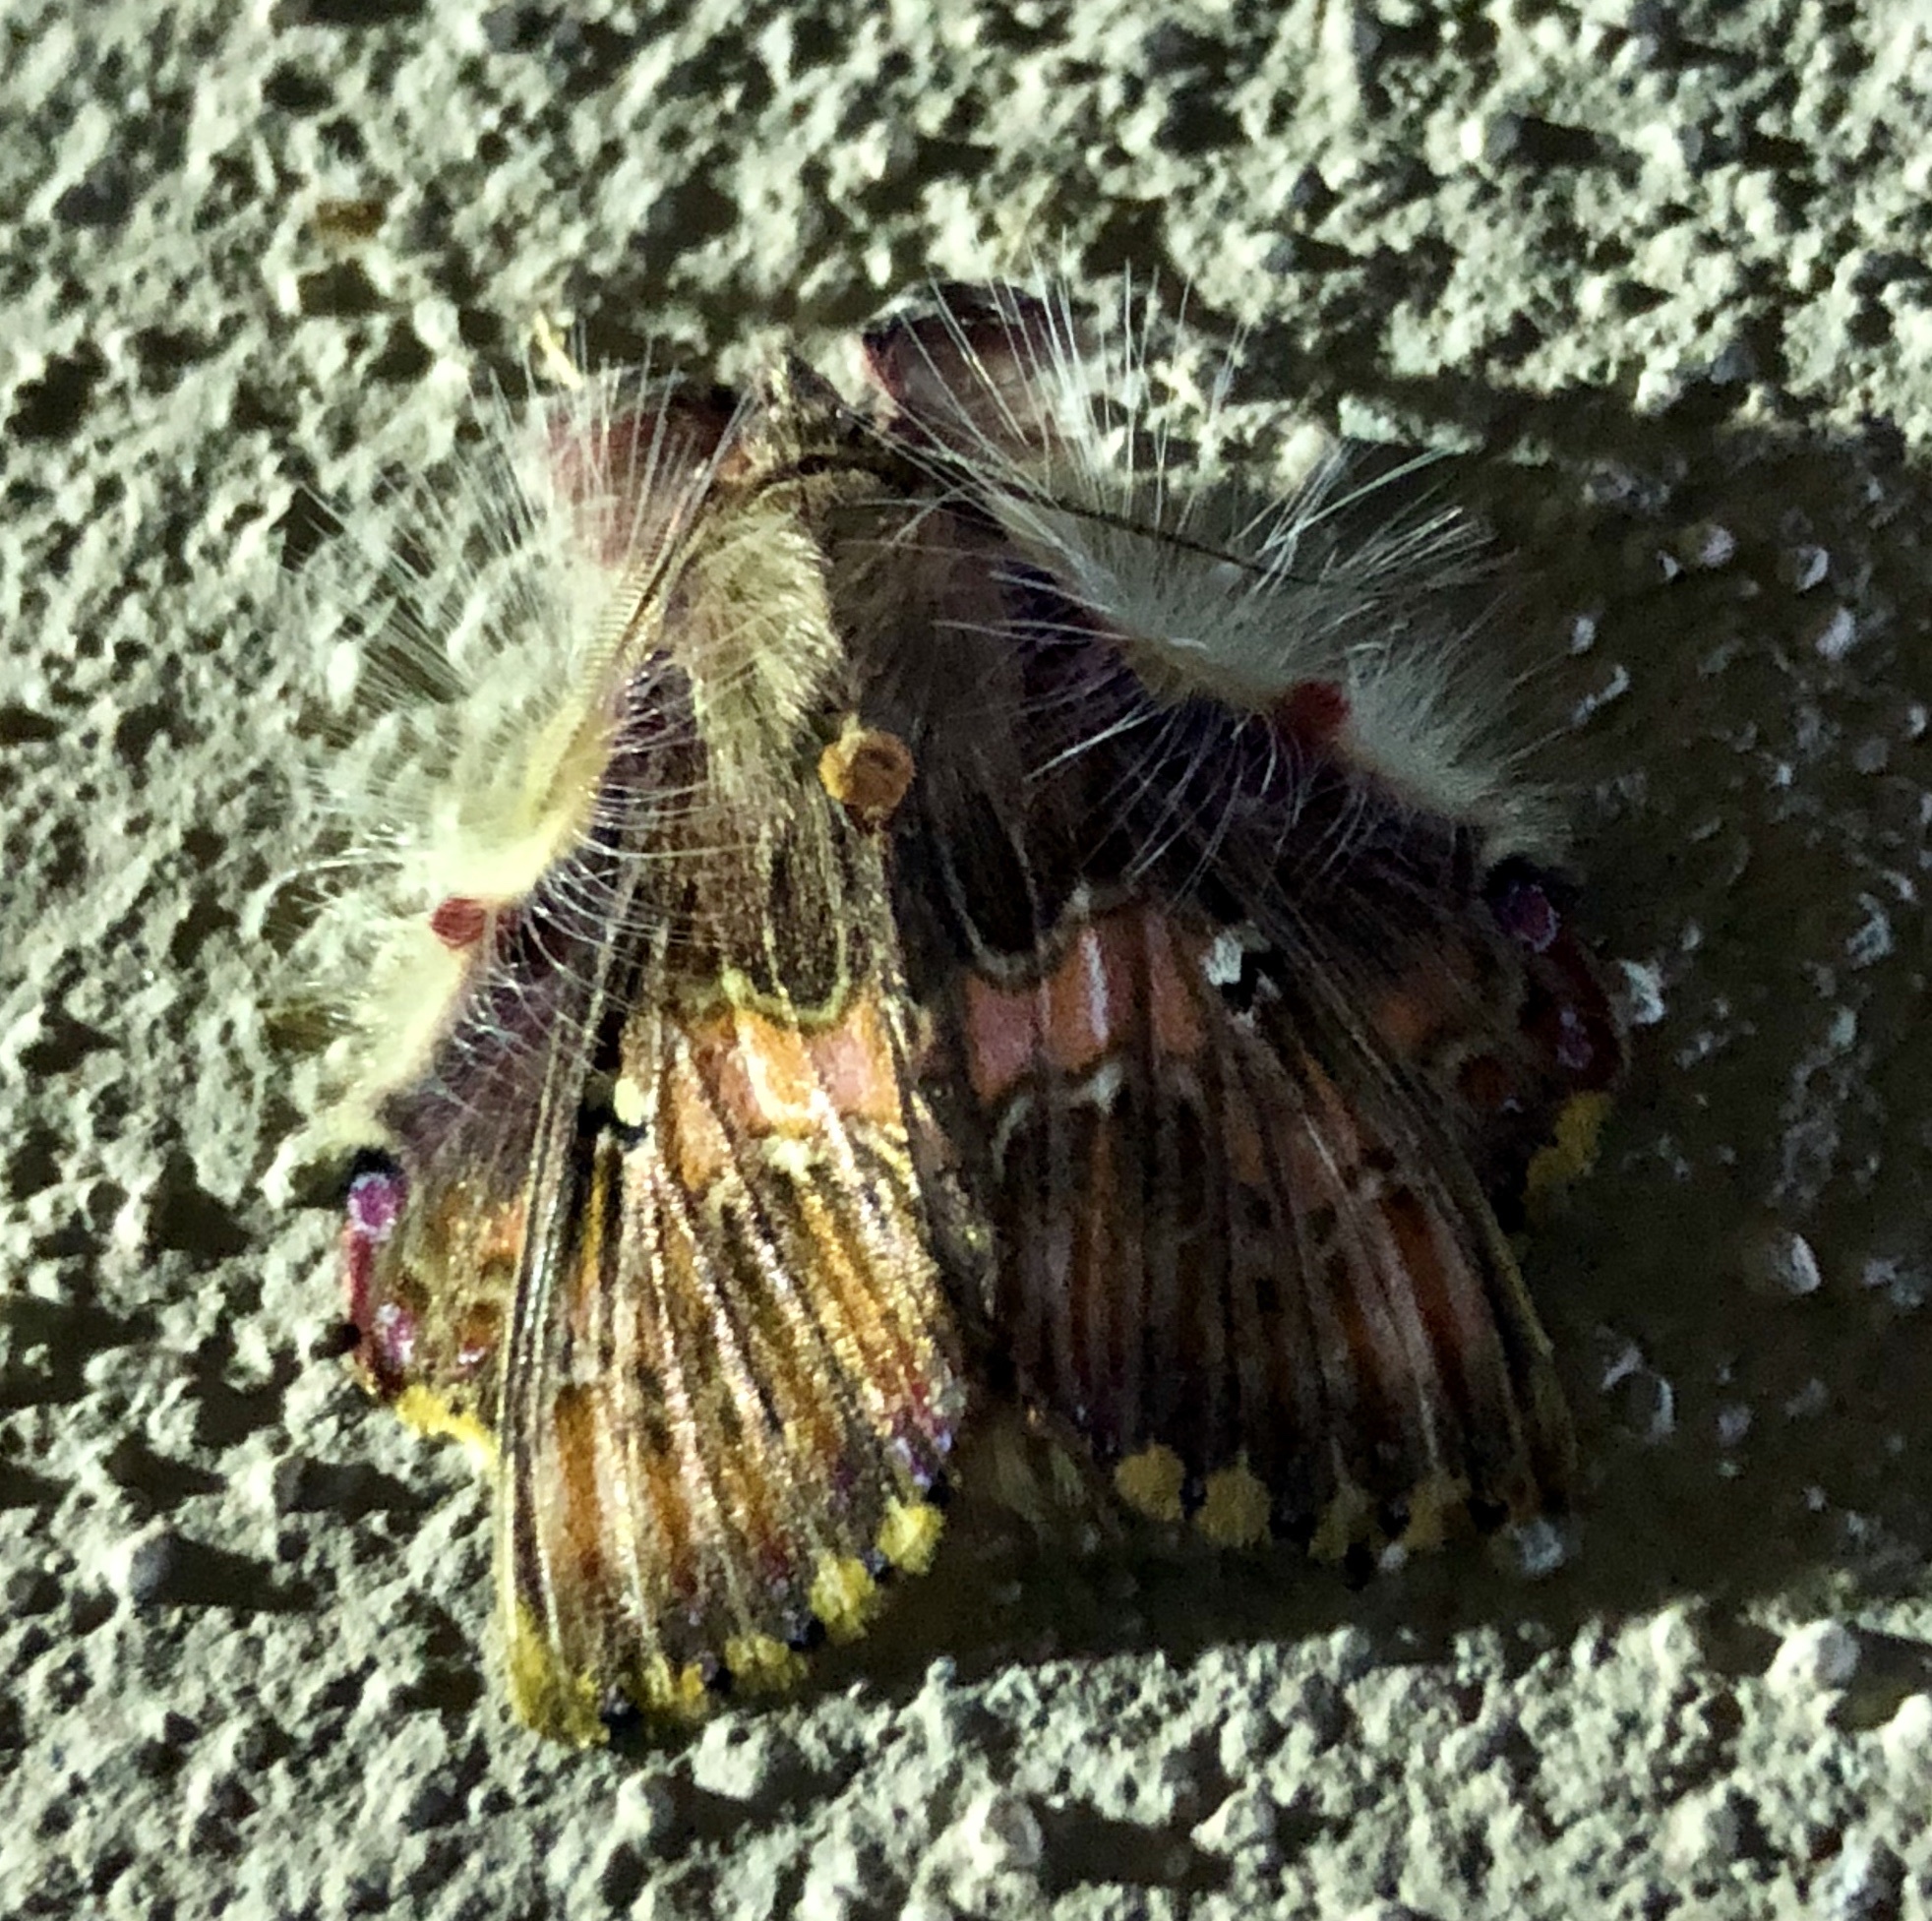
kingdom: Animalia
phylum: Arthropoda
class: Insecta
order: Lepidoptera
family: Erebidae
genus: Sosxetra
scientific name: Sosxetra grata
